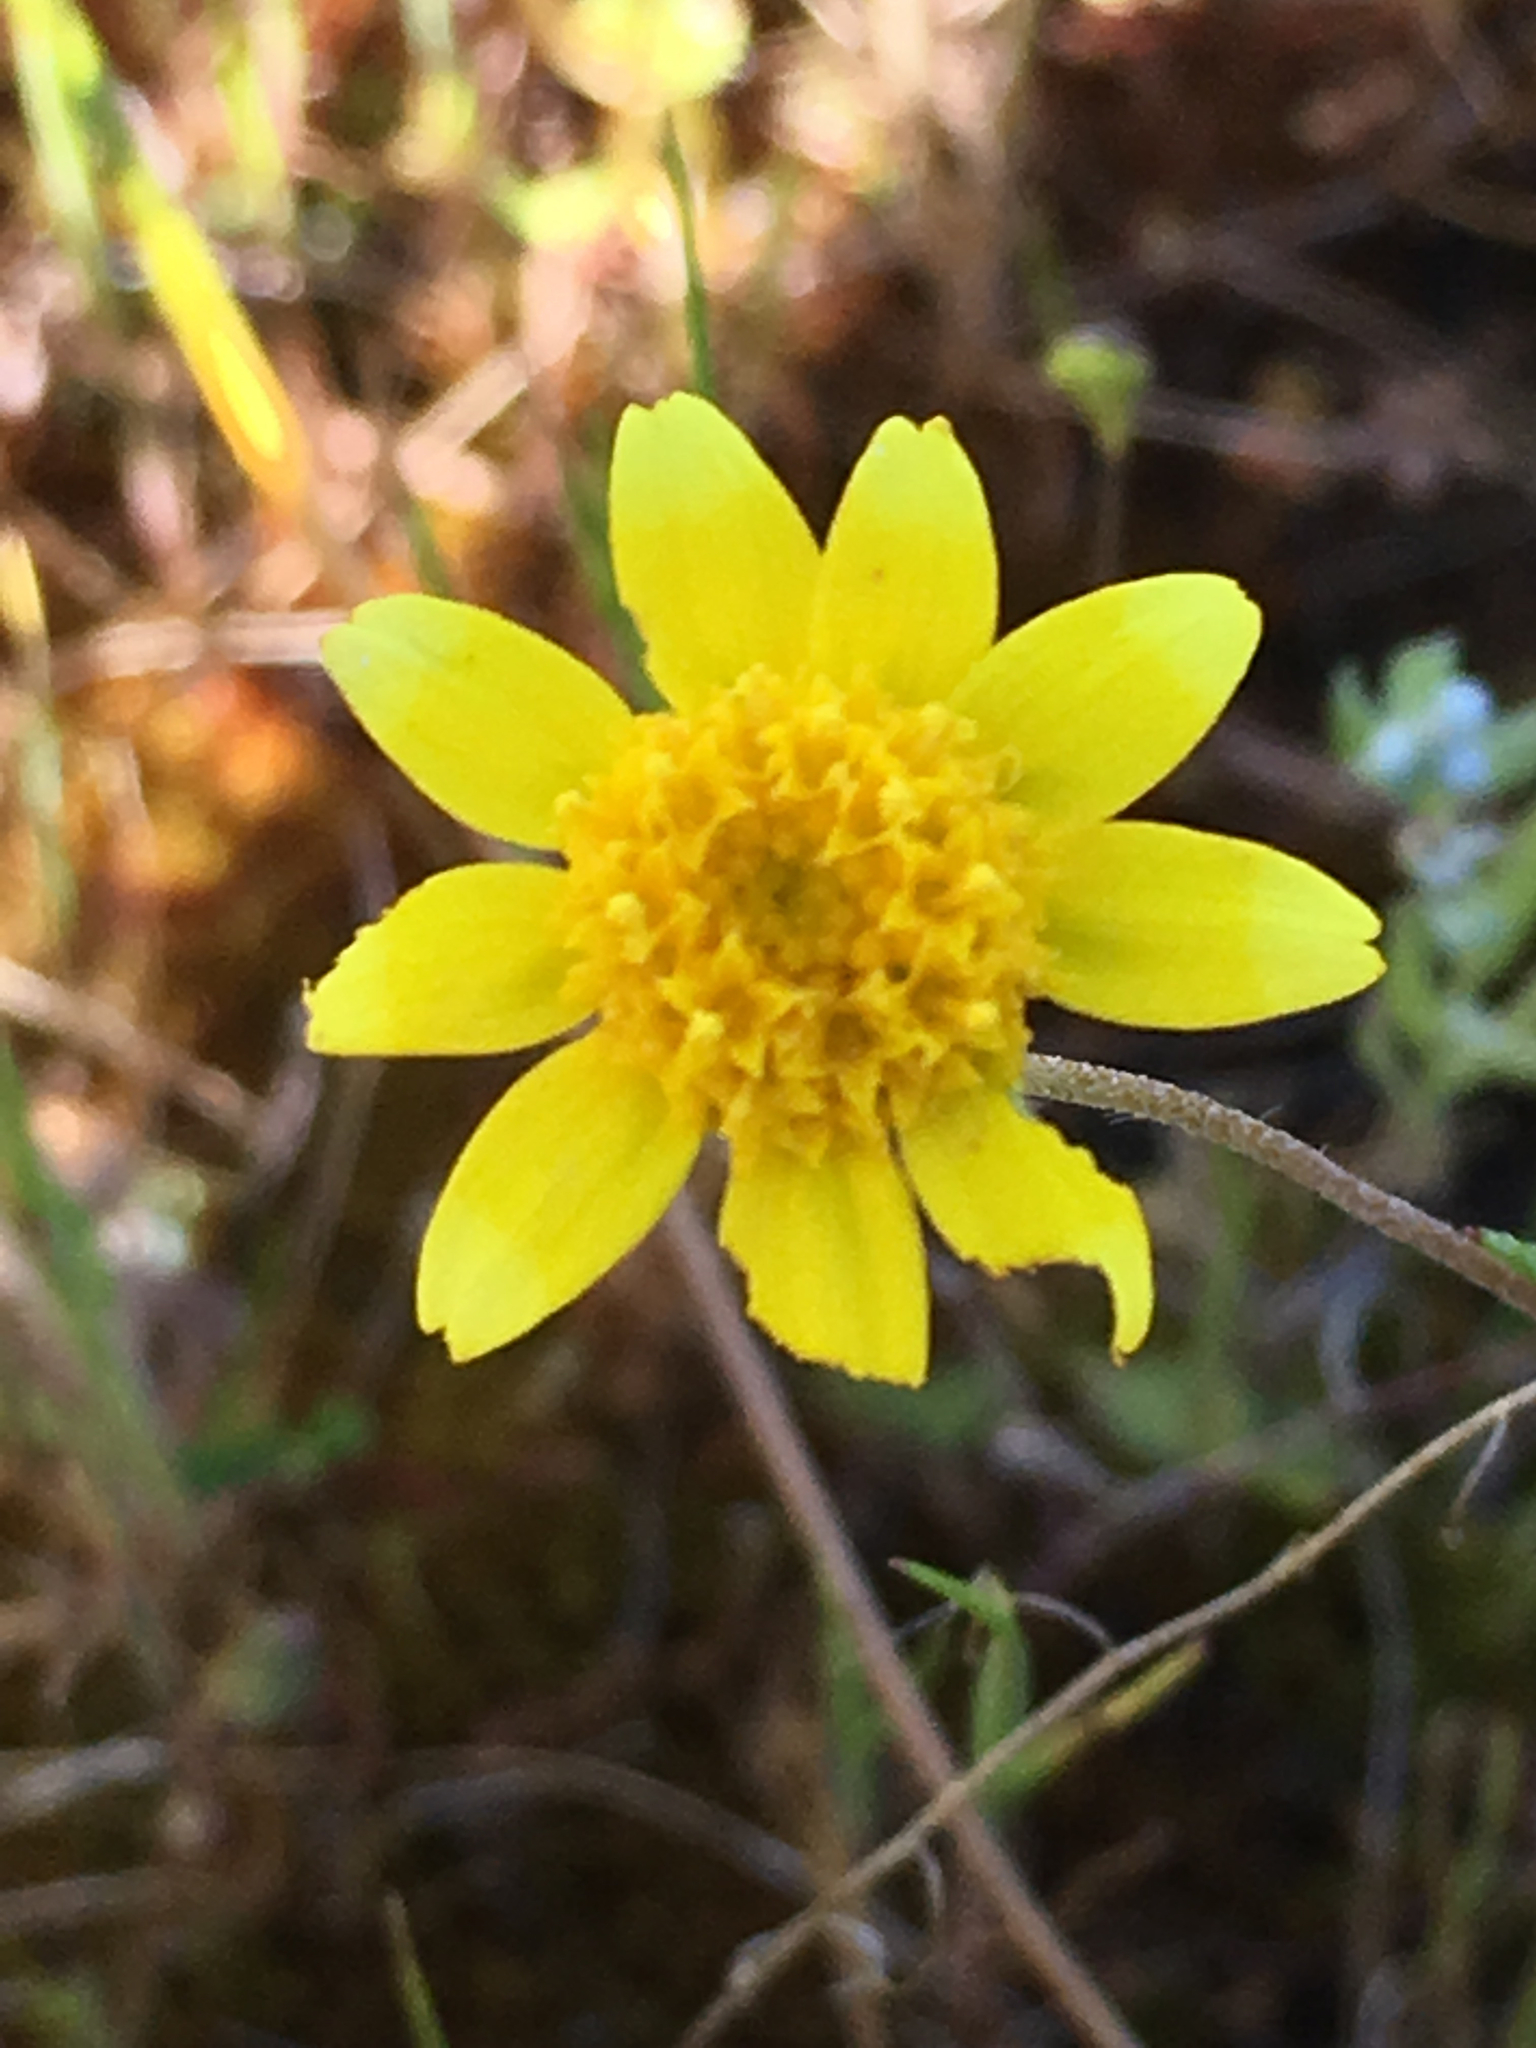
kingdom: Plantae
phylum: Tracheophyta
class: Magnoliopsida
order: Asterales
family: Asteraceae
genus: Lasthenia
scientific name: Lasthenia gracilis
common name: Common goldfields
